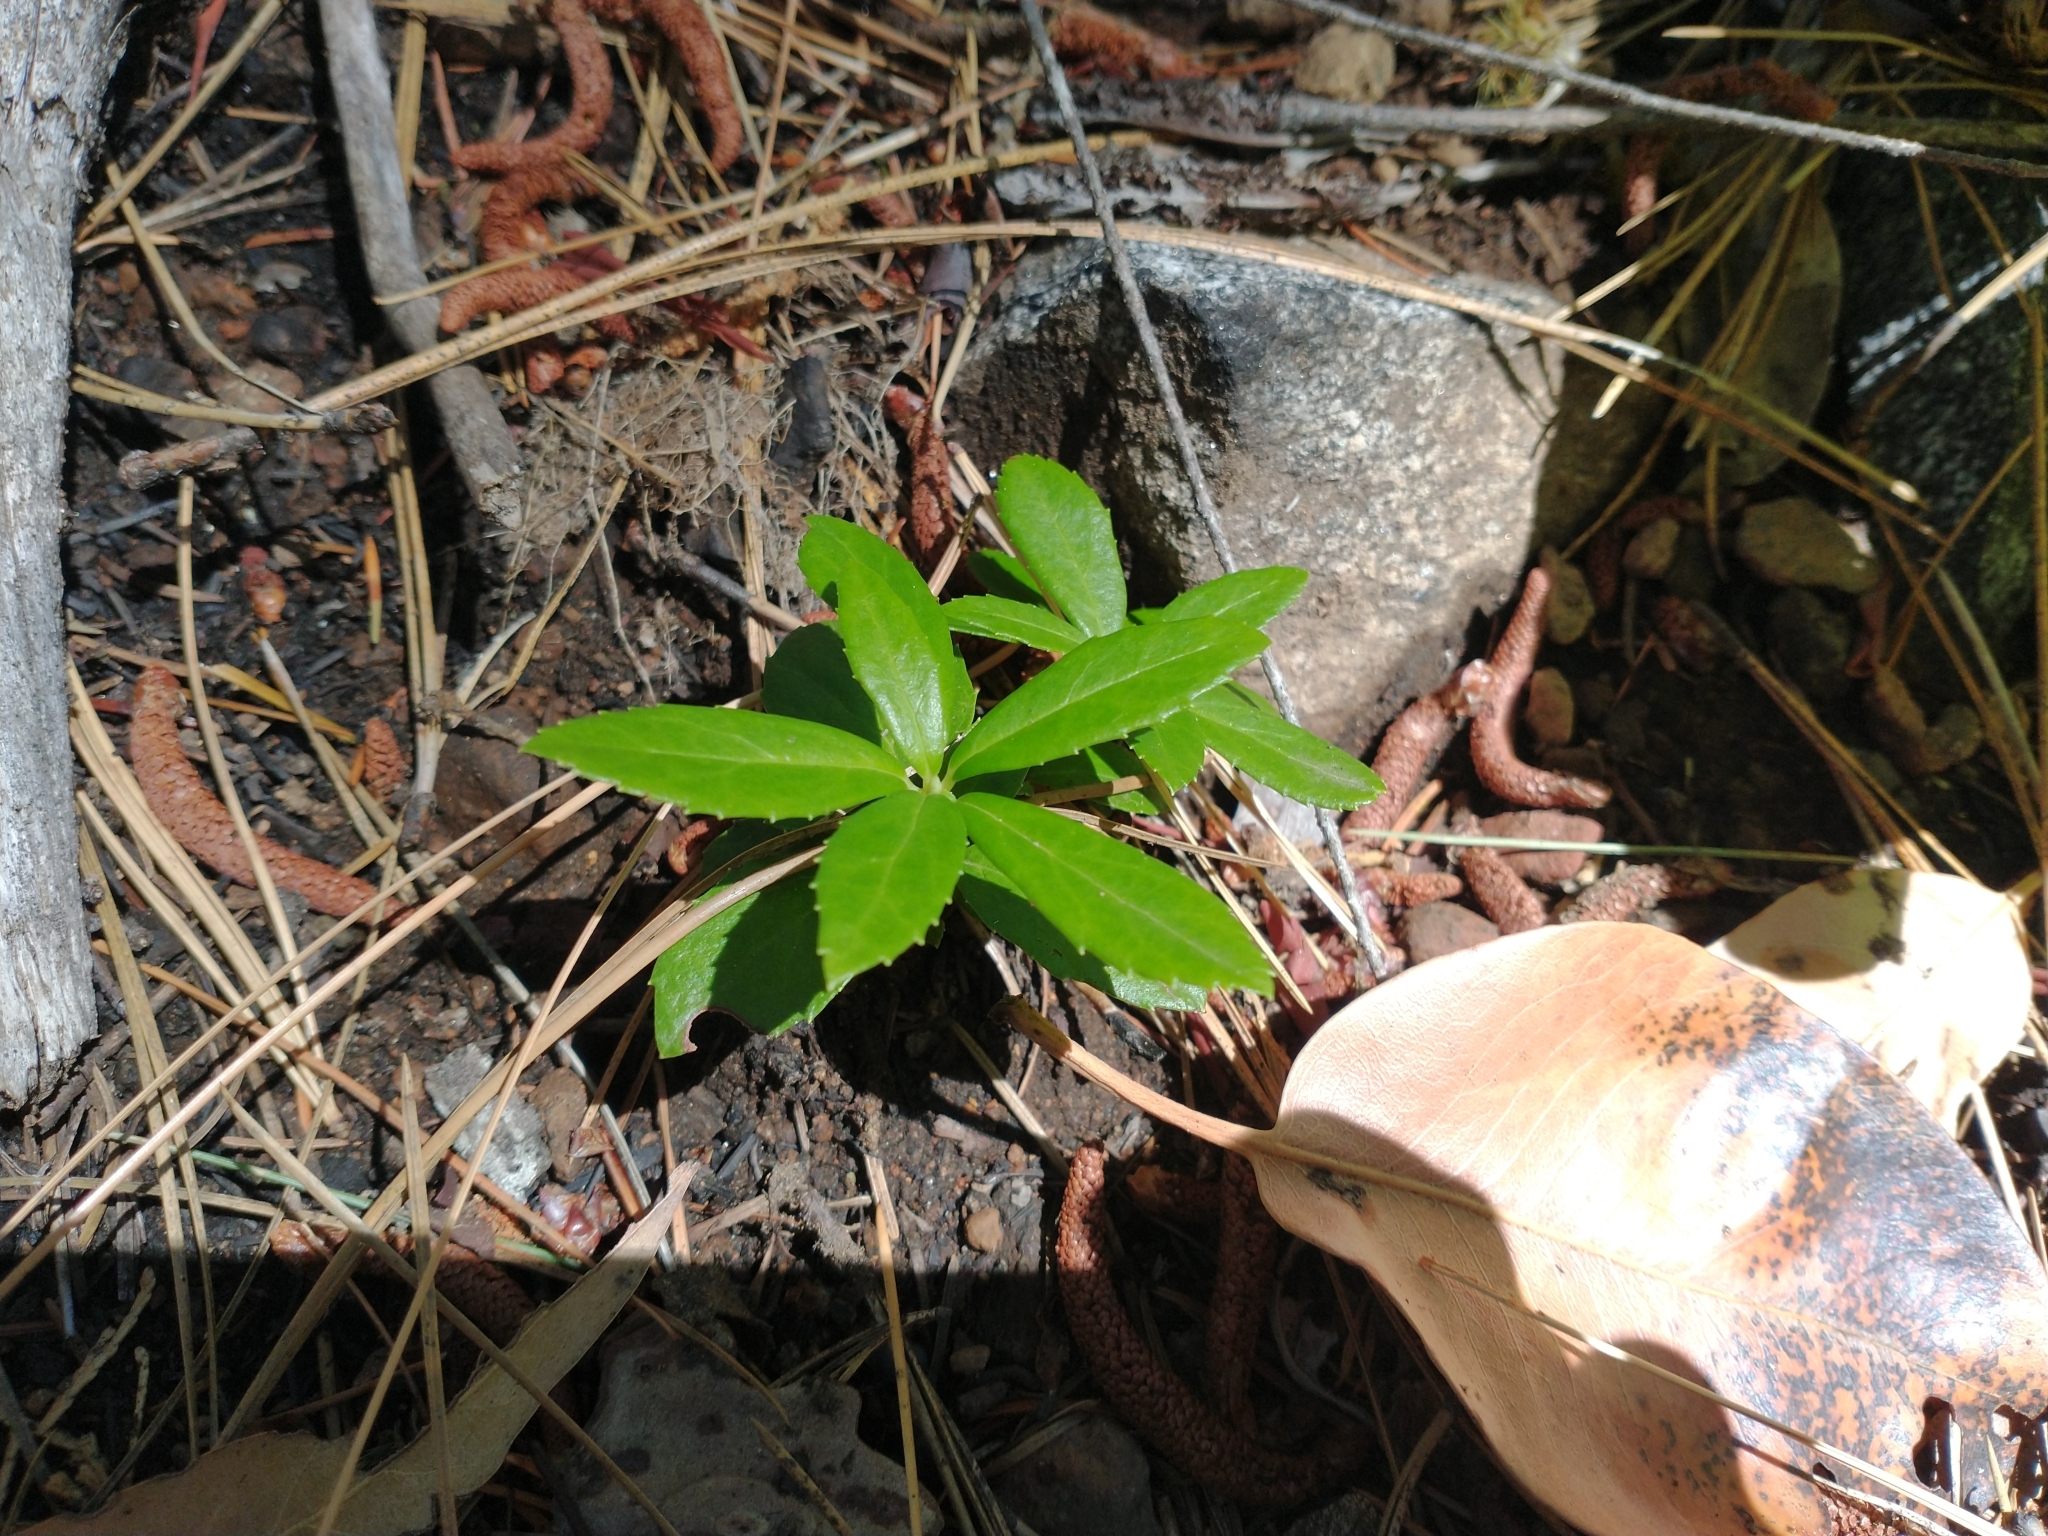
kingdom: Plantae
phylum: Tracheophyta
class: Magnoliopsida
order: Ericales
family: Ericaceae
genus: Chimaphila
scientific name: Chimaphila umbellata
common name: Pipsissewa
